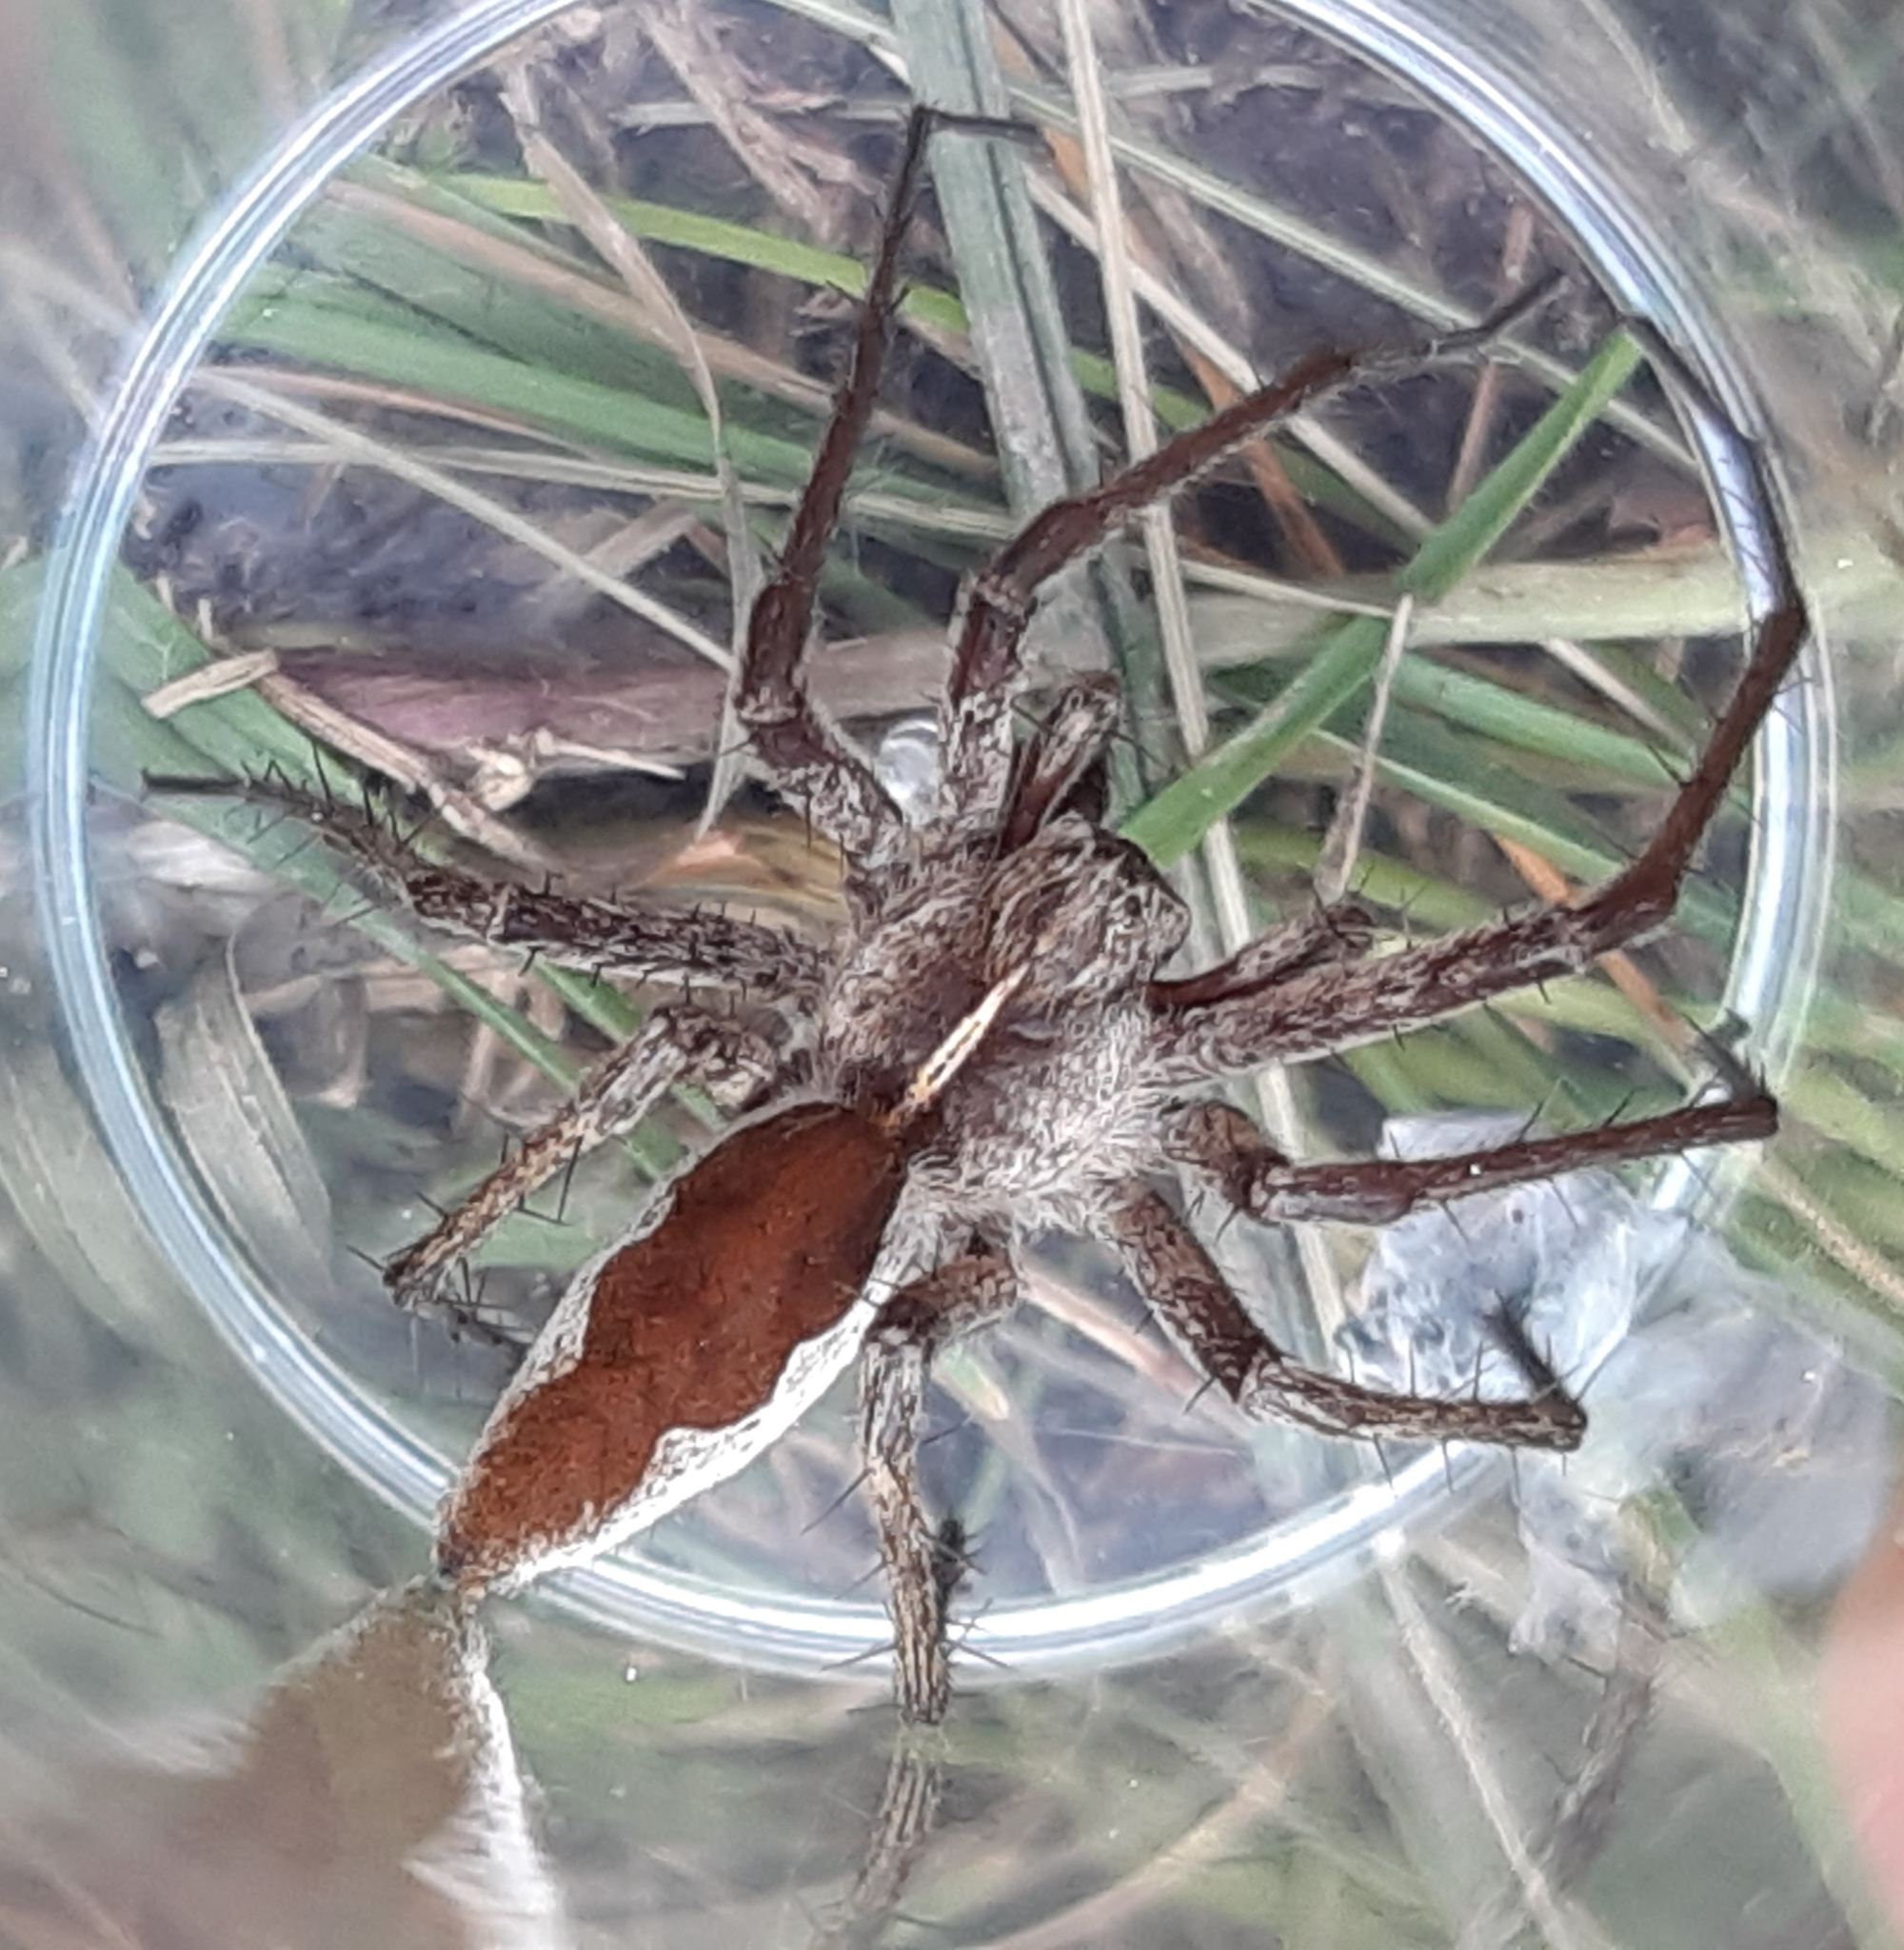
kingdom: Animalia
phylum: Arthropoda
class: Arachnida
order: Araneae
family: Pisauridae
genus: Pisaura
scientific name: Pisaura mirabilis
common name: Tent spider
